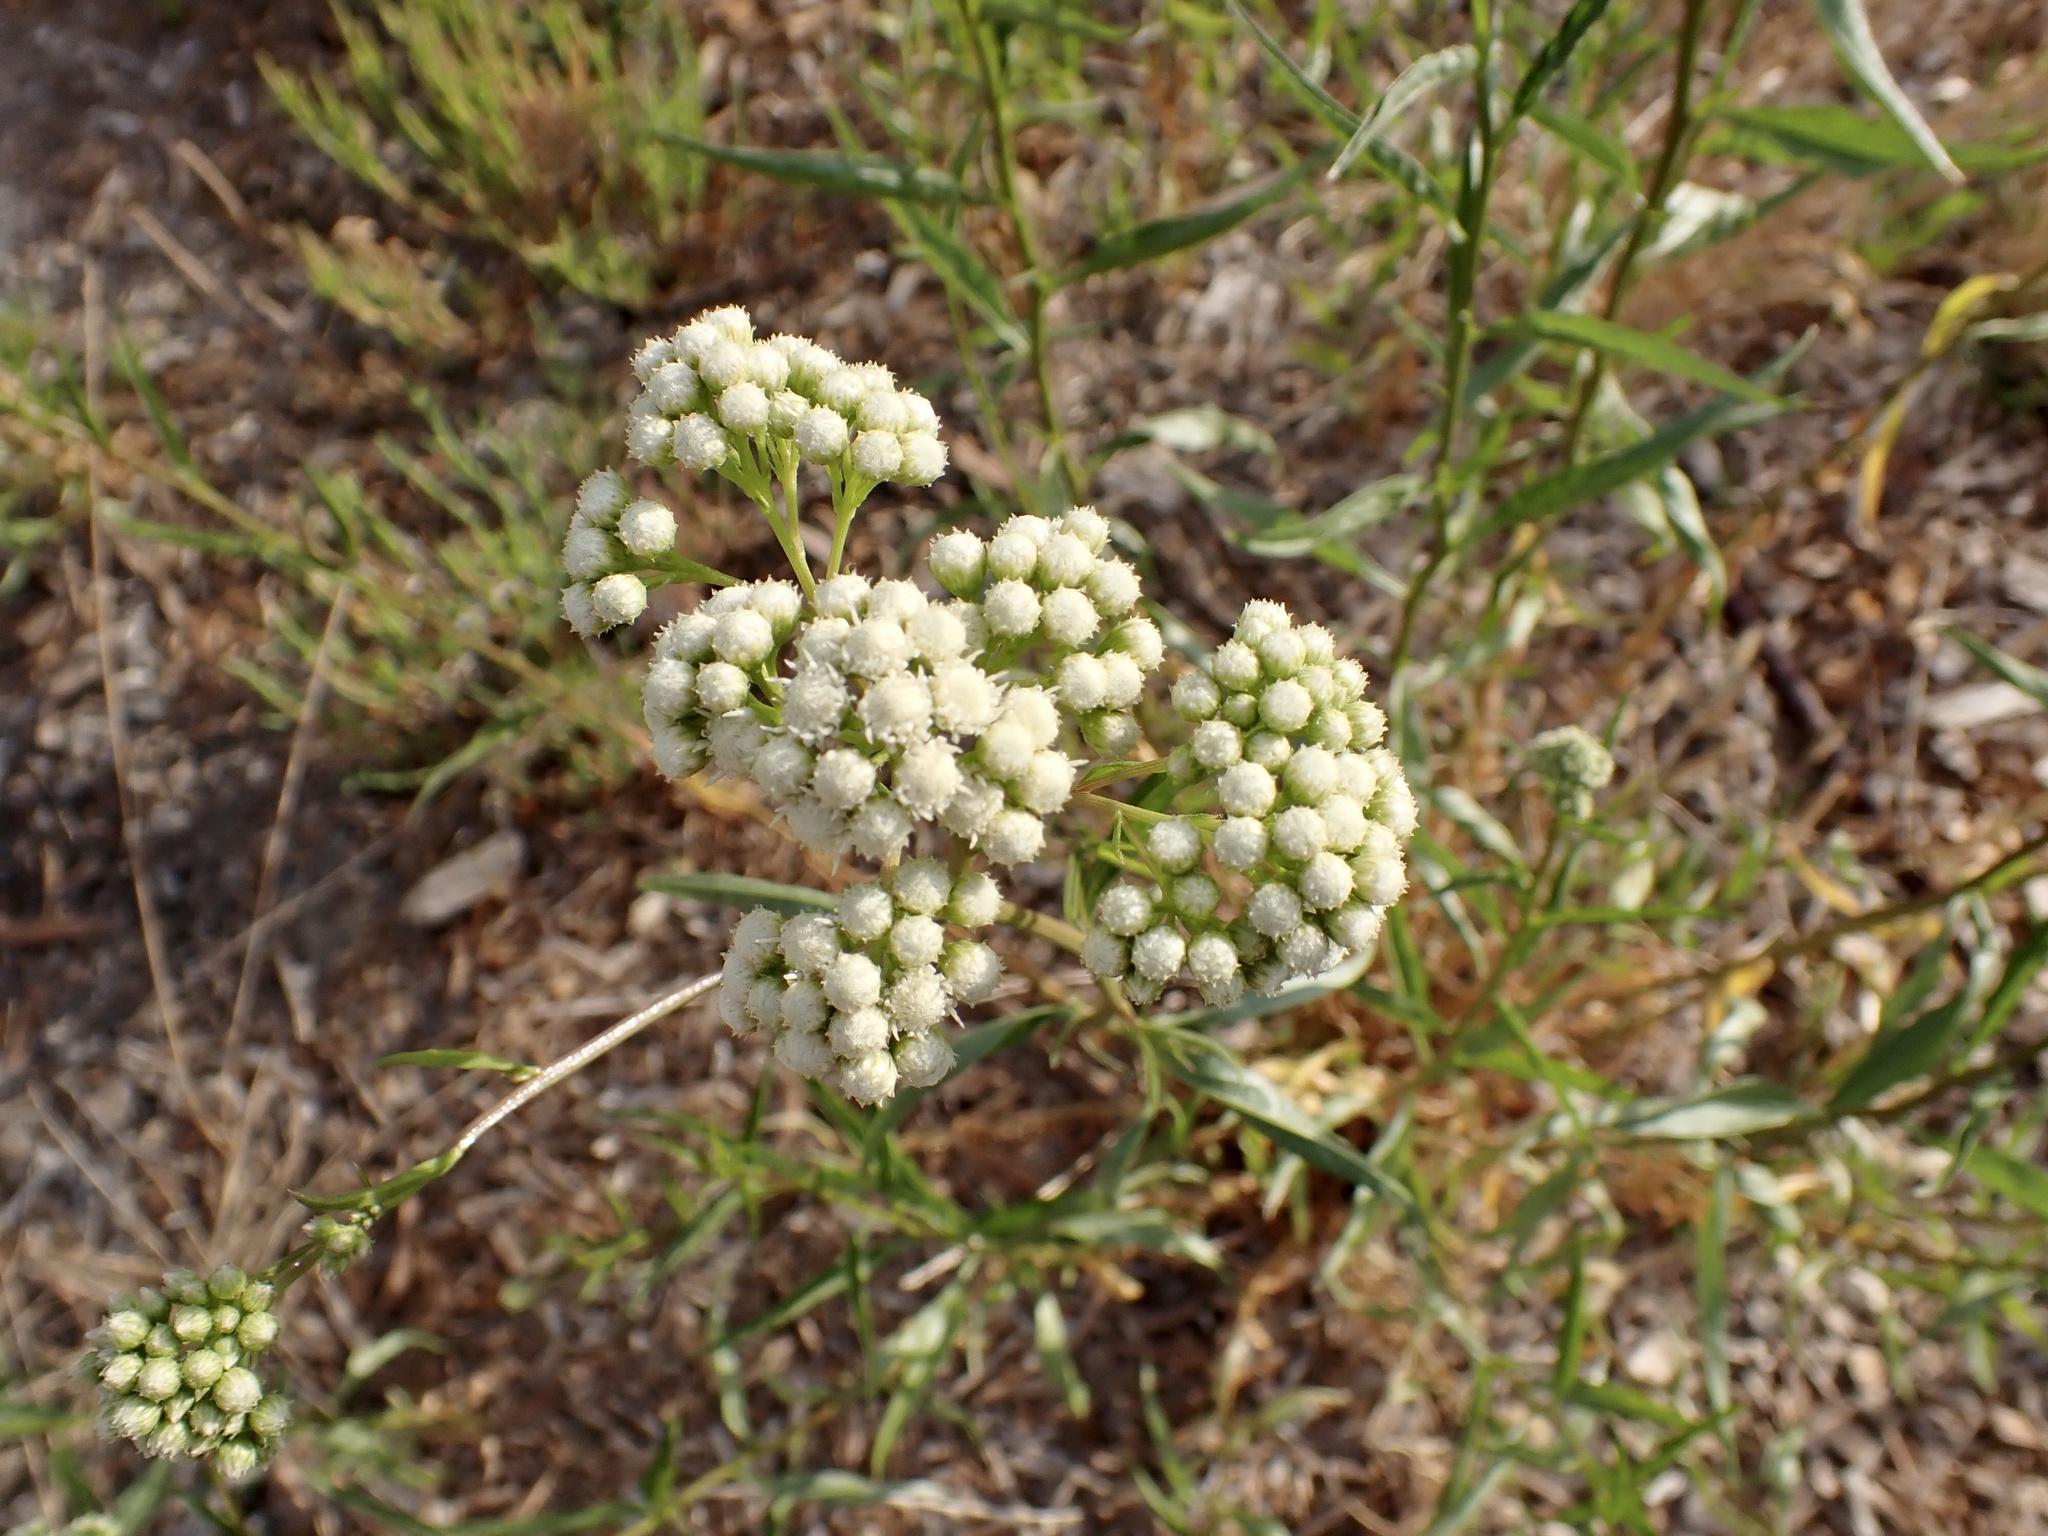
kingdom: Plantae
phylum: Tracheophyta
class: Magnoliopsida
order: Asterales
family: Asteraceae
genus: Baccharis
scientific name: Baccharis glutinosa
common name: Saltmarsh baccharis
